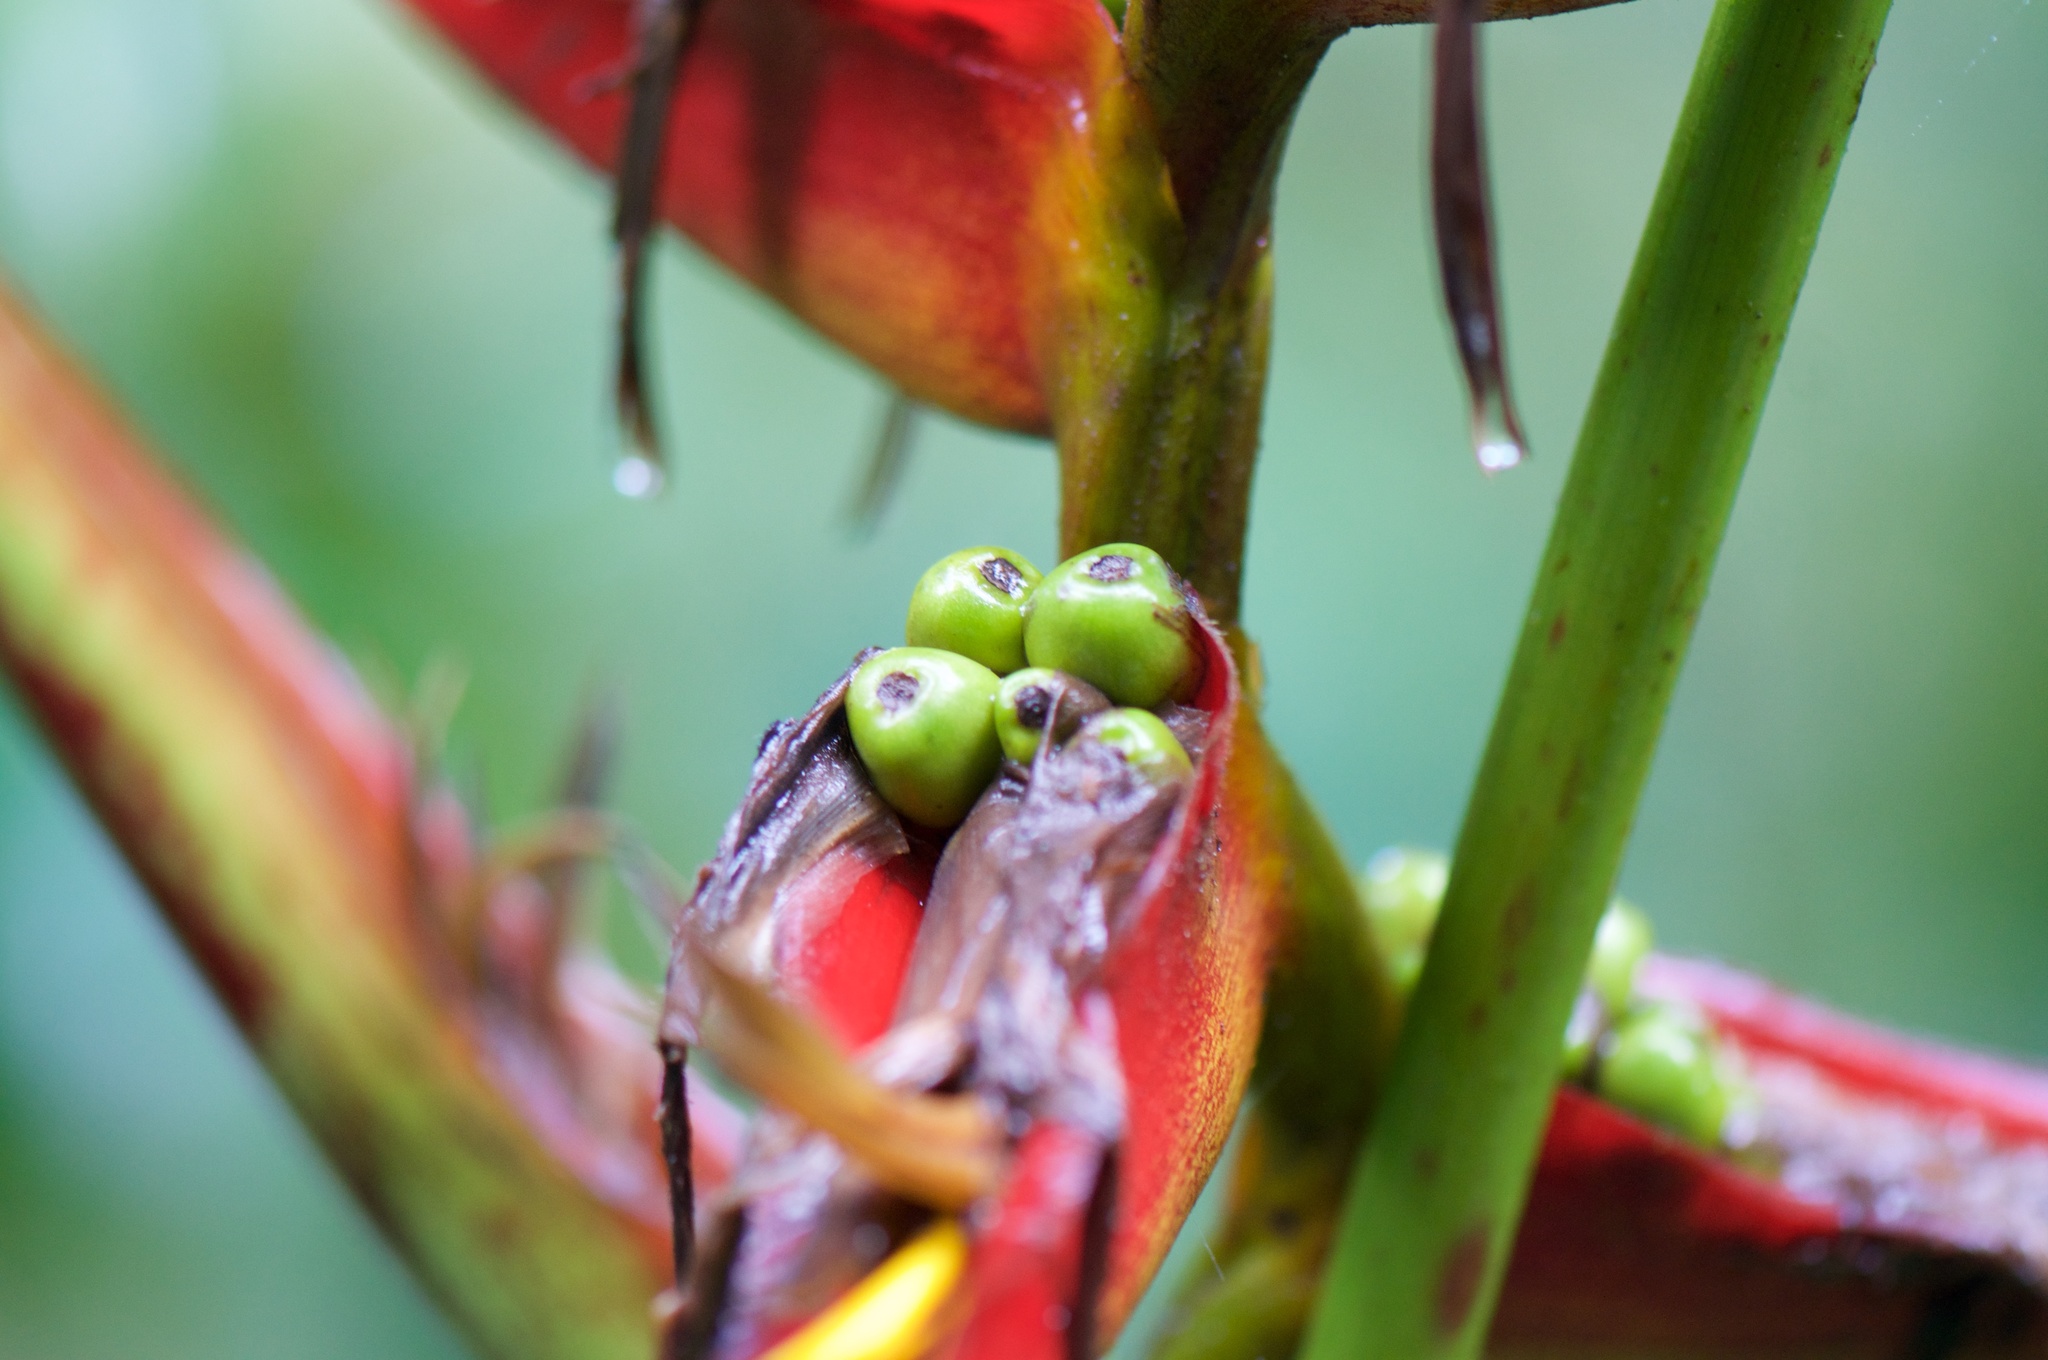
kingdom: Plantae
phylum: Tracheophyta
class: Liliopsida
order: Zingiberales
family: Heliconiaceae
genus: Heliconia
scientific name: Heliconia monteverdensis
